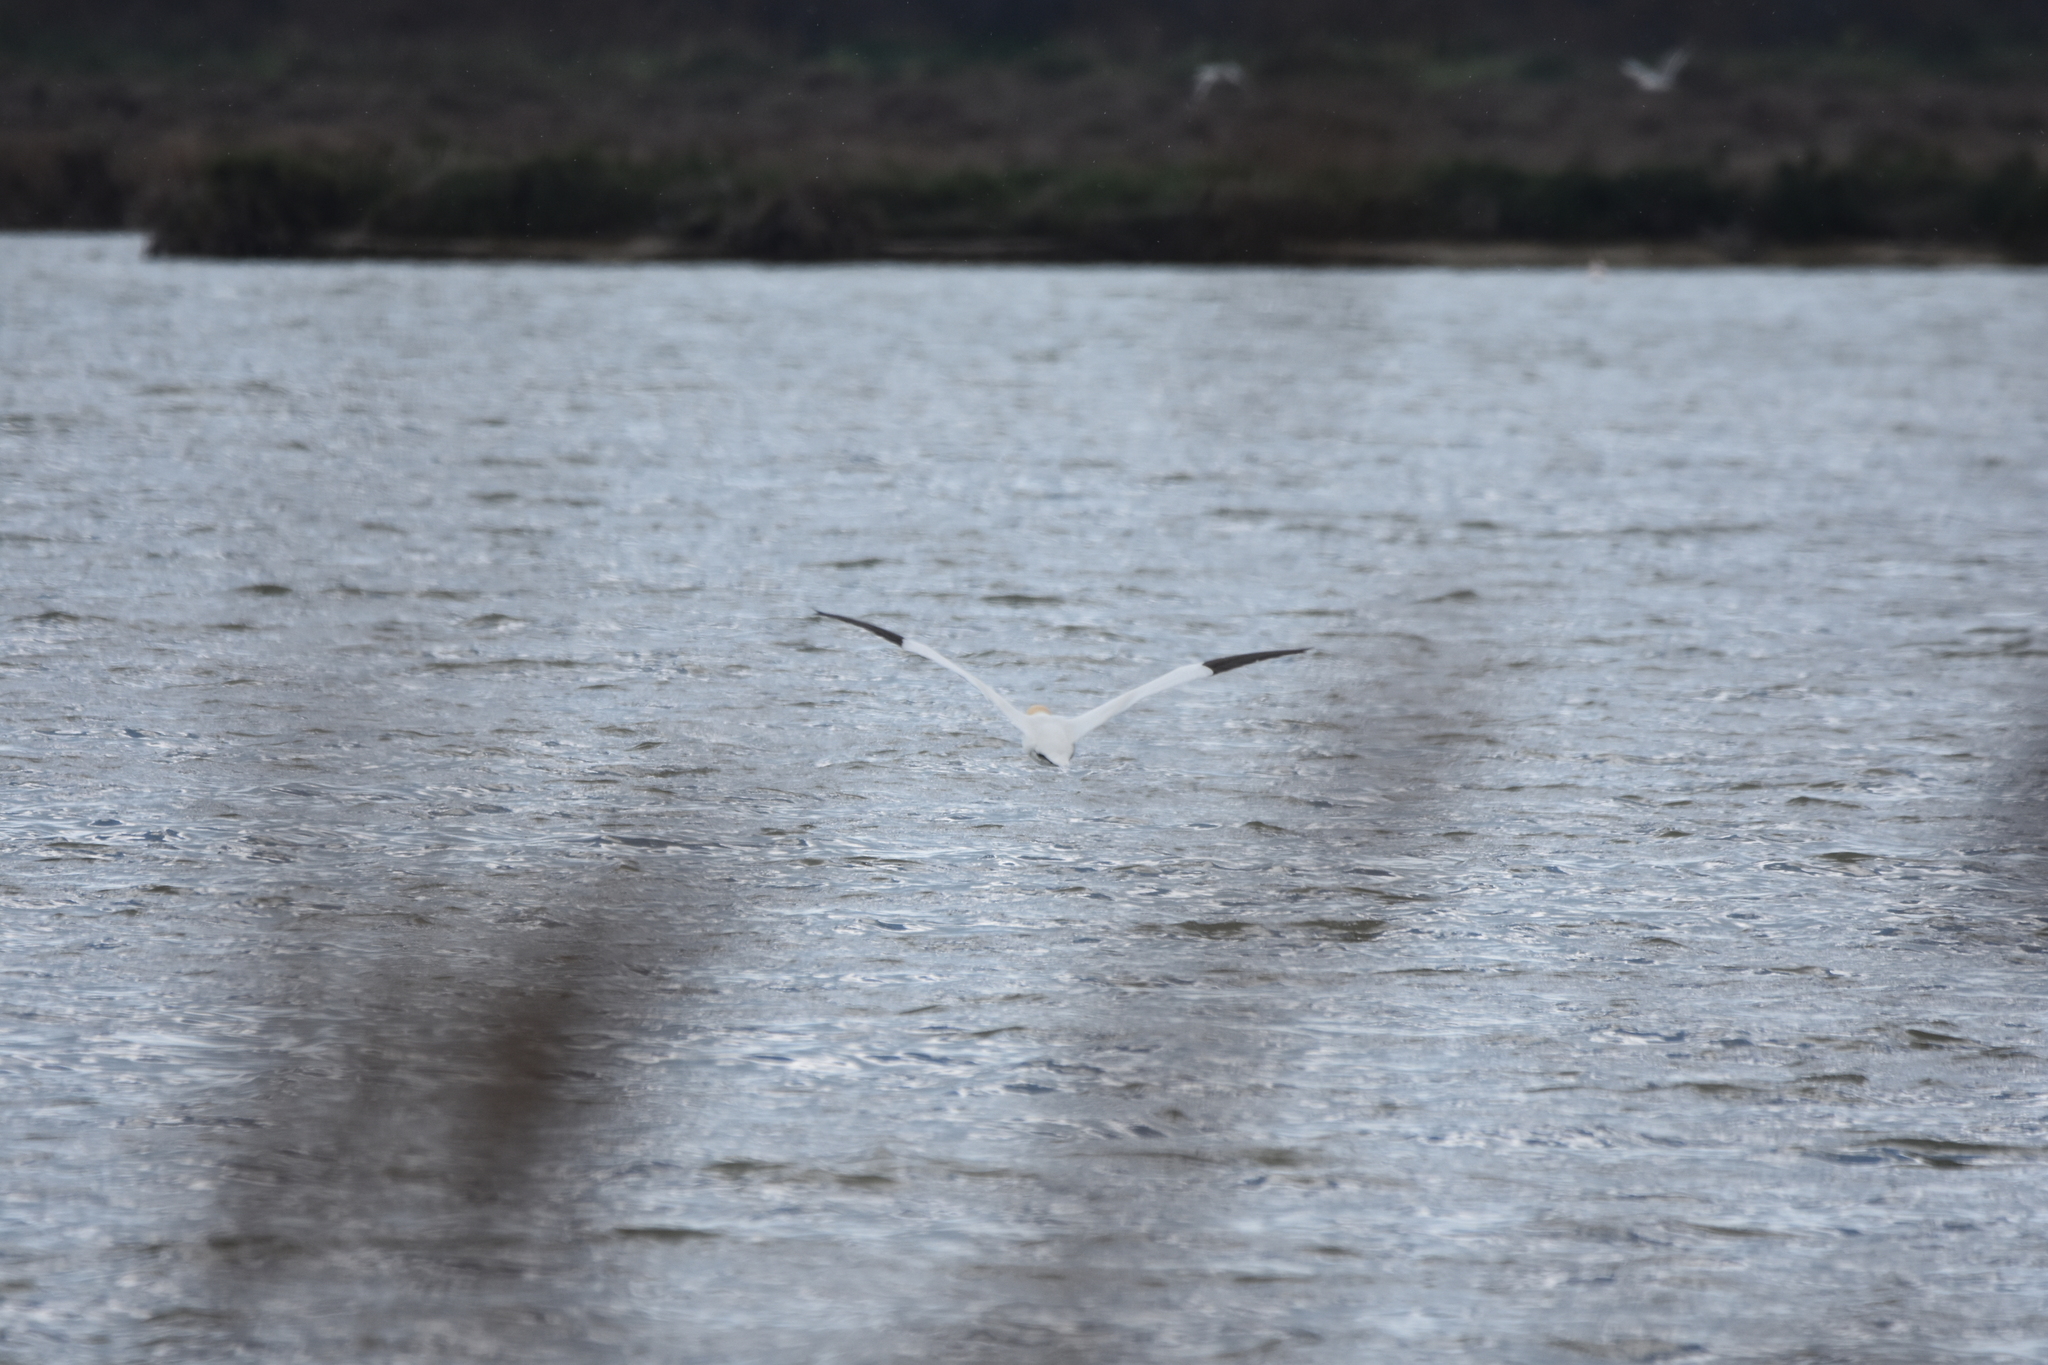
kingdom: Animalia
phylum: Chordata
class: Aves
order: Suliformes
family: Sulidae
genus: Morus
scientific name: Morus bassanus
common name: Northern gannet
